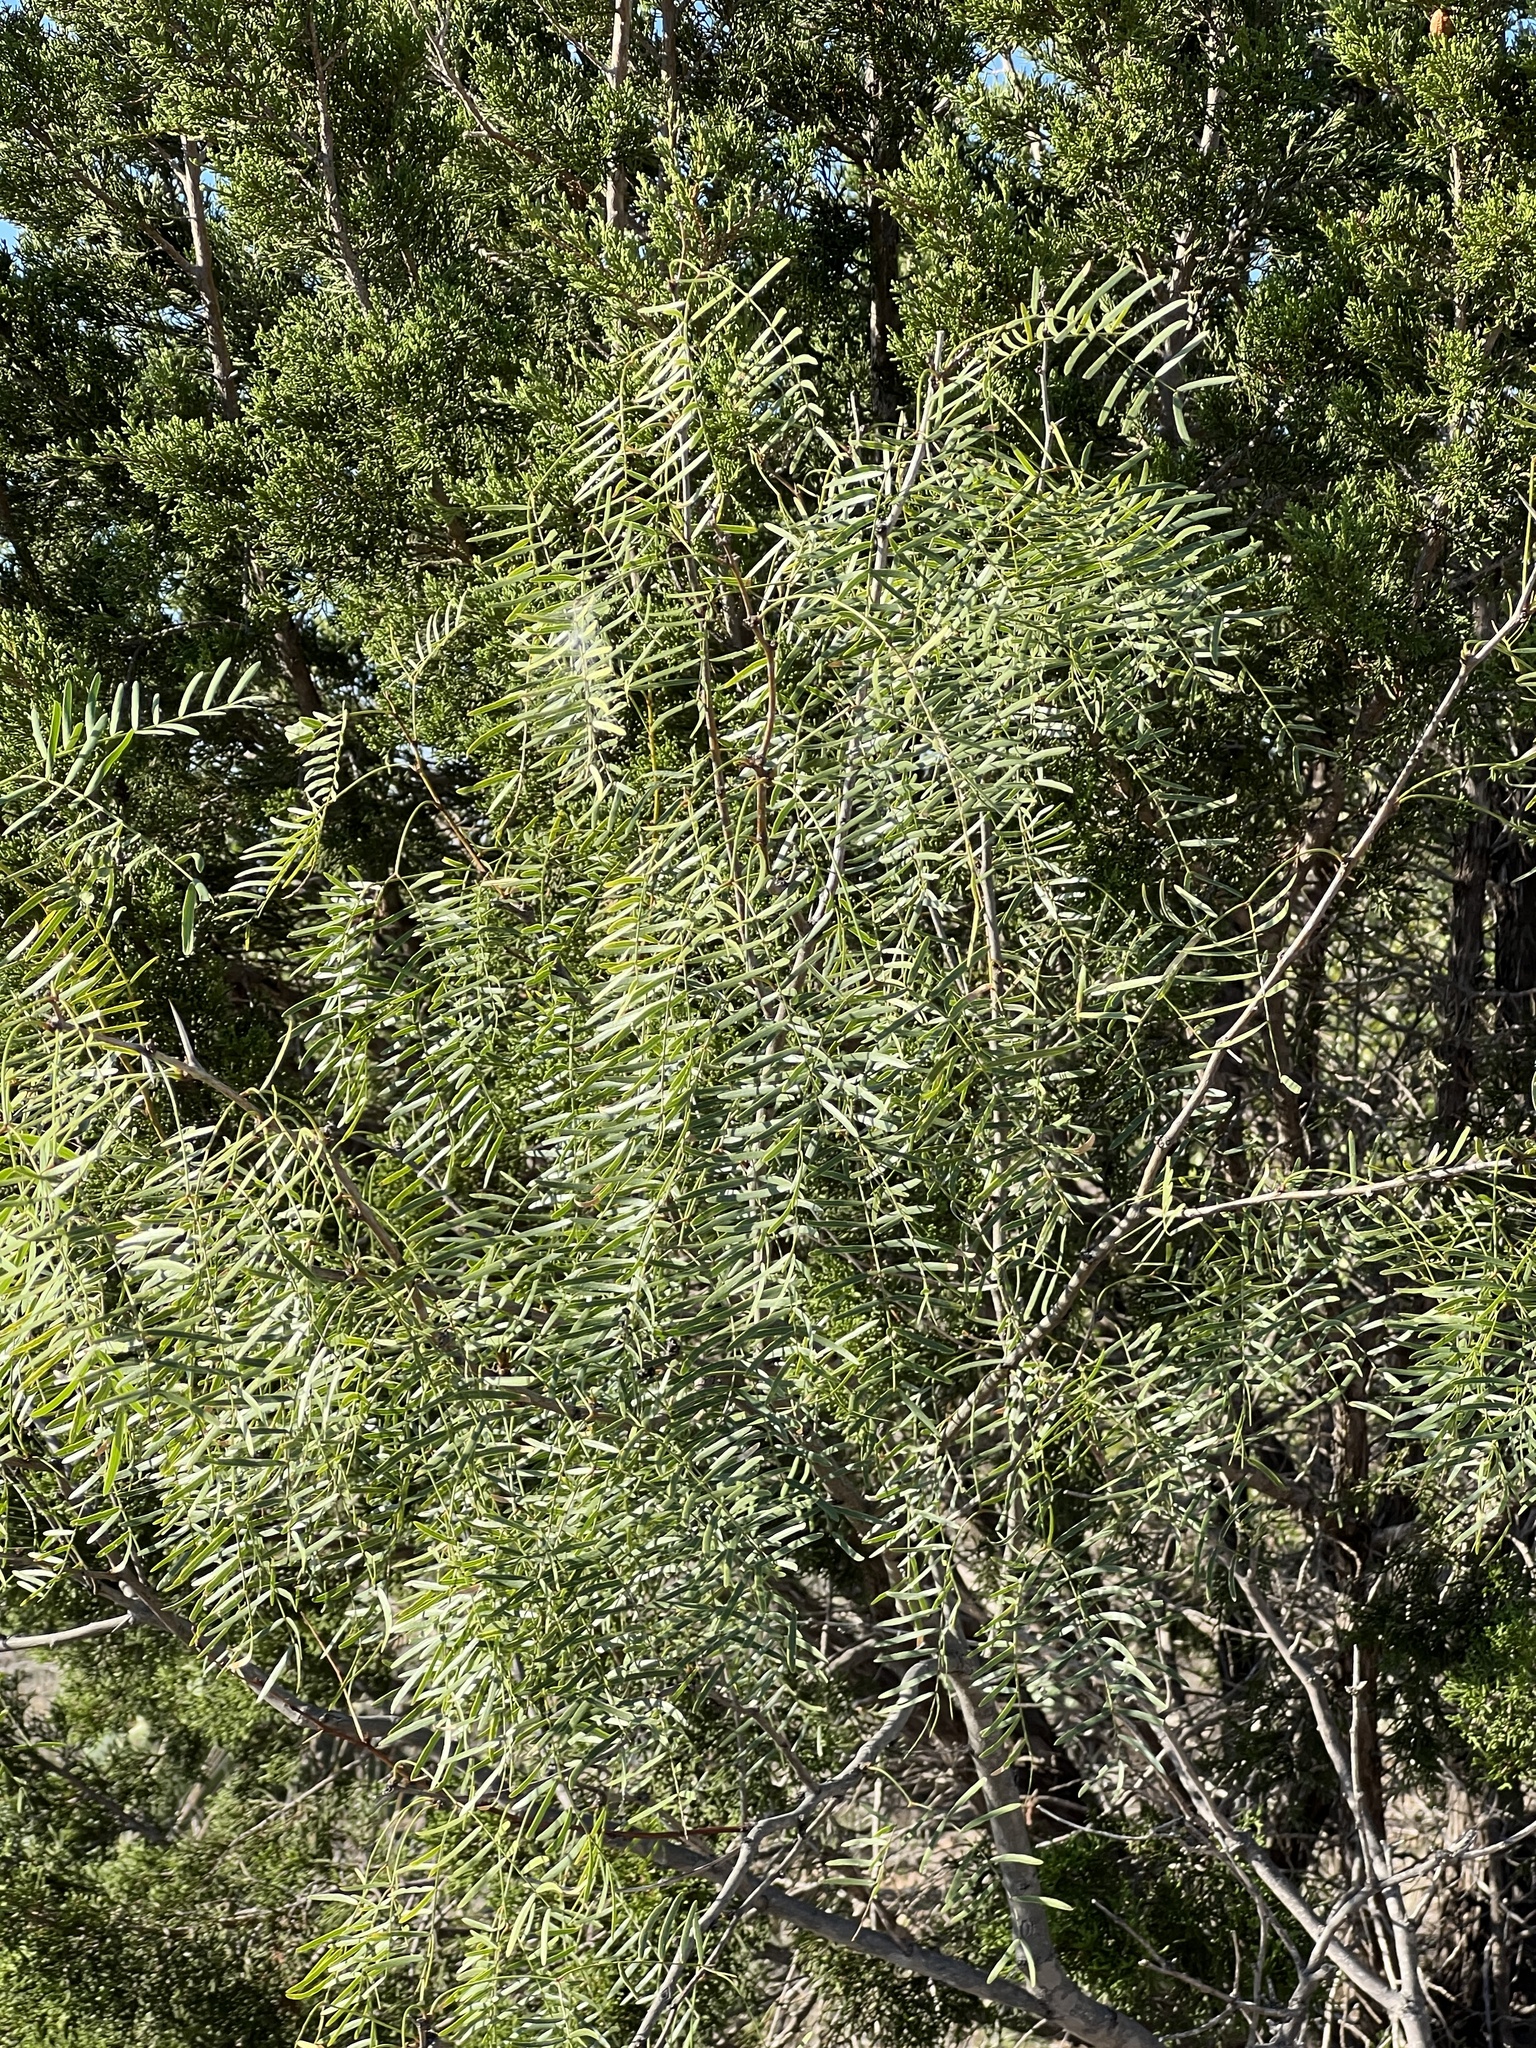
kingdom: Plantae
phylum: Tracheophyta
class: Magnoliopsida
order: Fabales
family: Fabaceae
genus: Prosopis
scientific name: Prosopis glandulosa
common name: Honey mesquite
